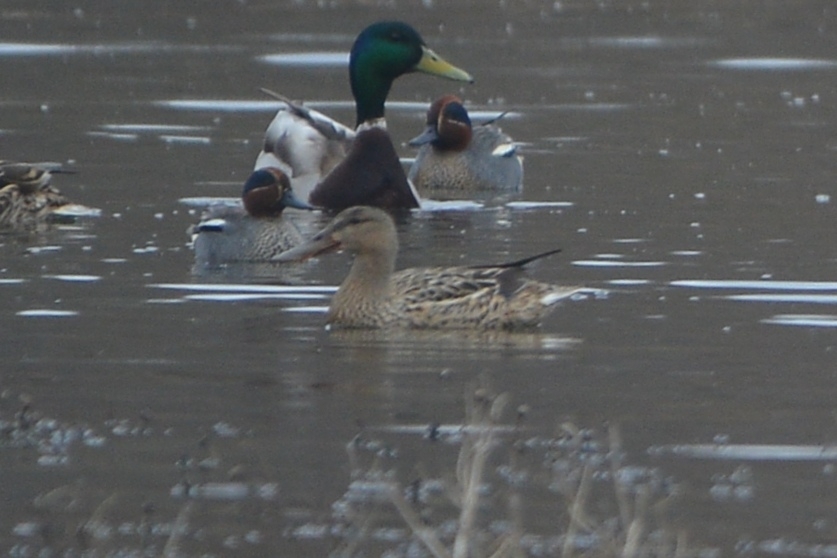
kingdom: Animalia
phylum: Chordata
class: Aves
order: Anseriformes
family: Anatidae
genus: Spatula
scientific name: Spatula clypeata
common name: Northern shoveler
